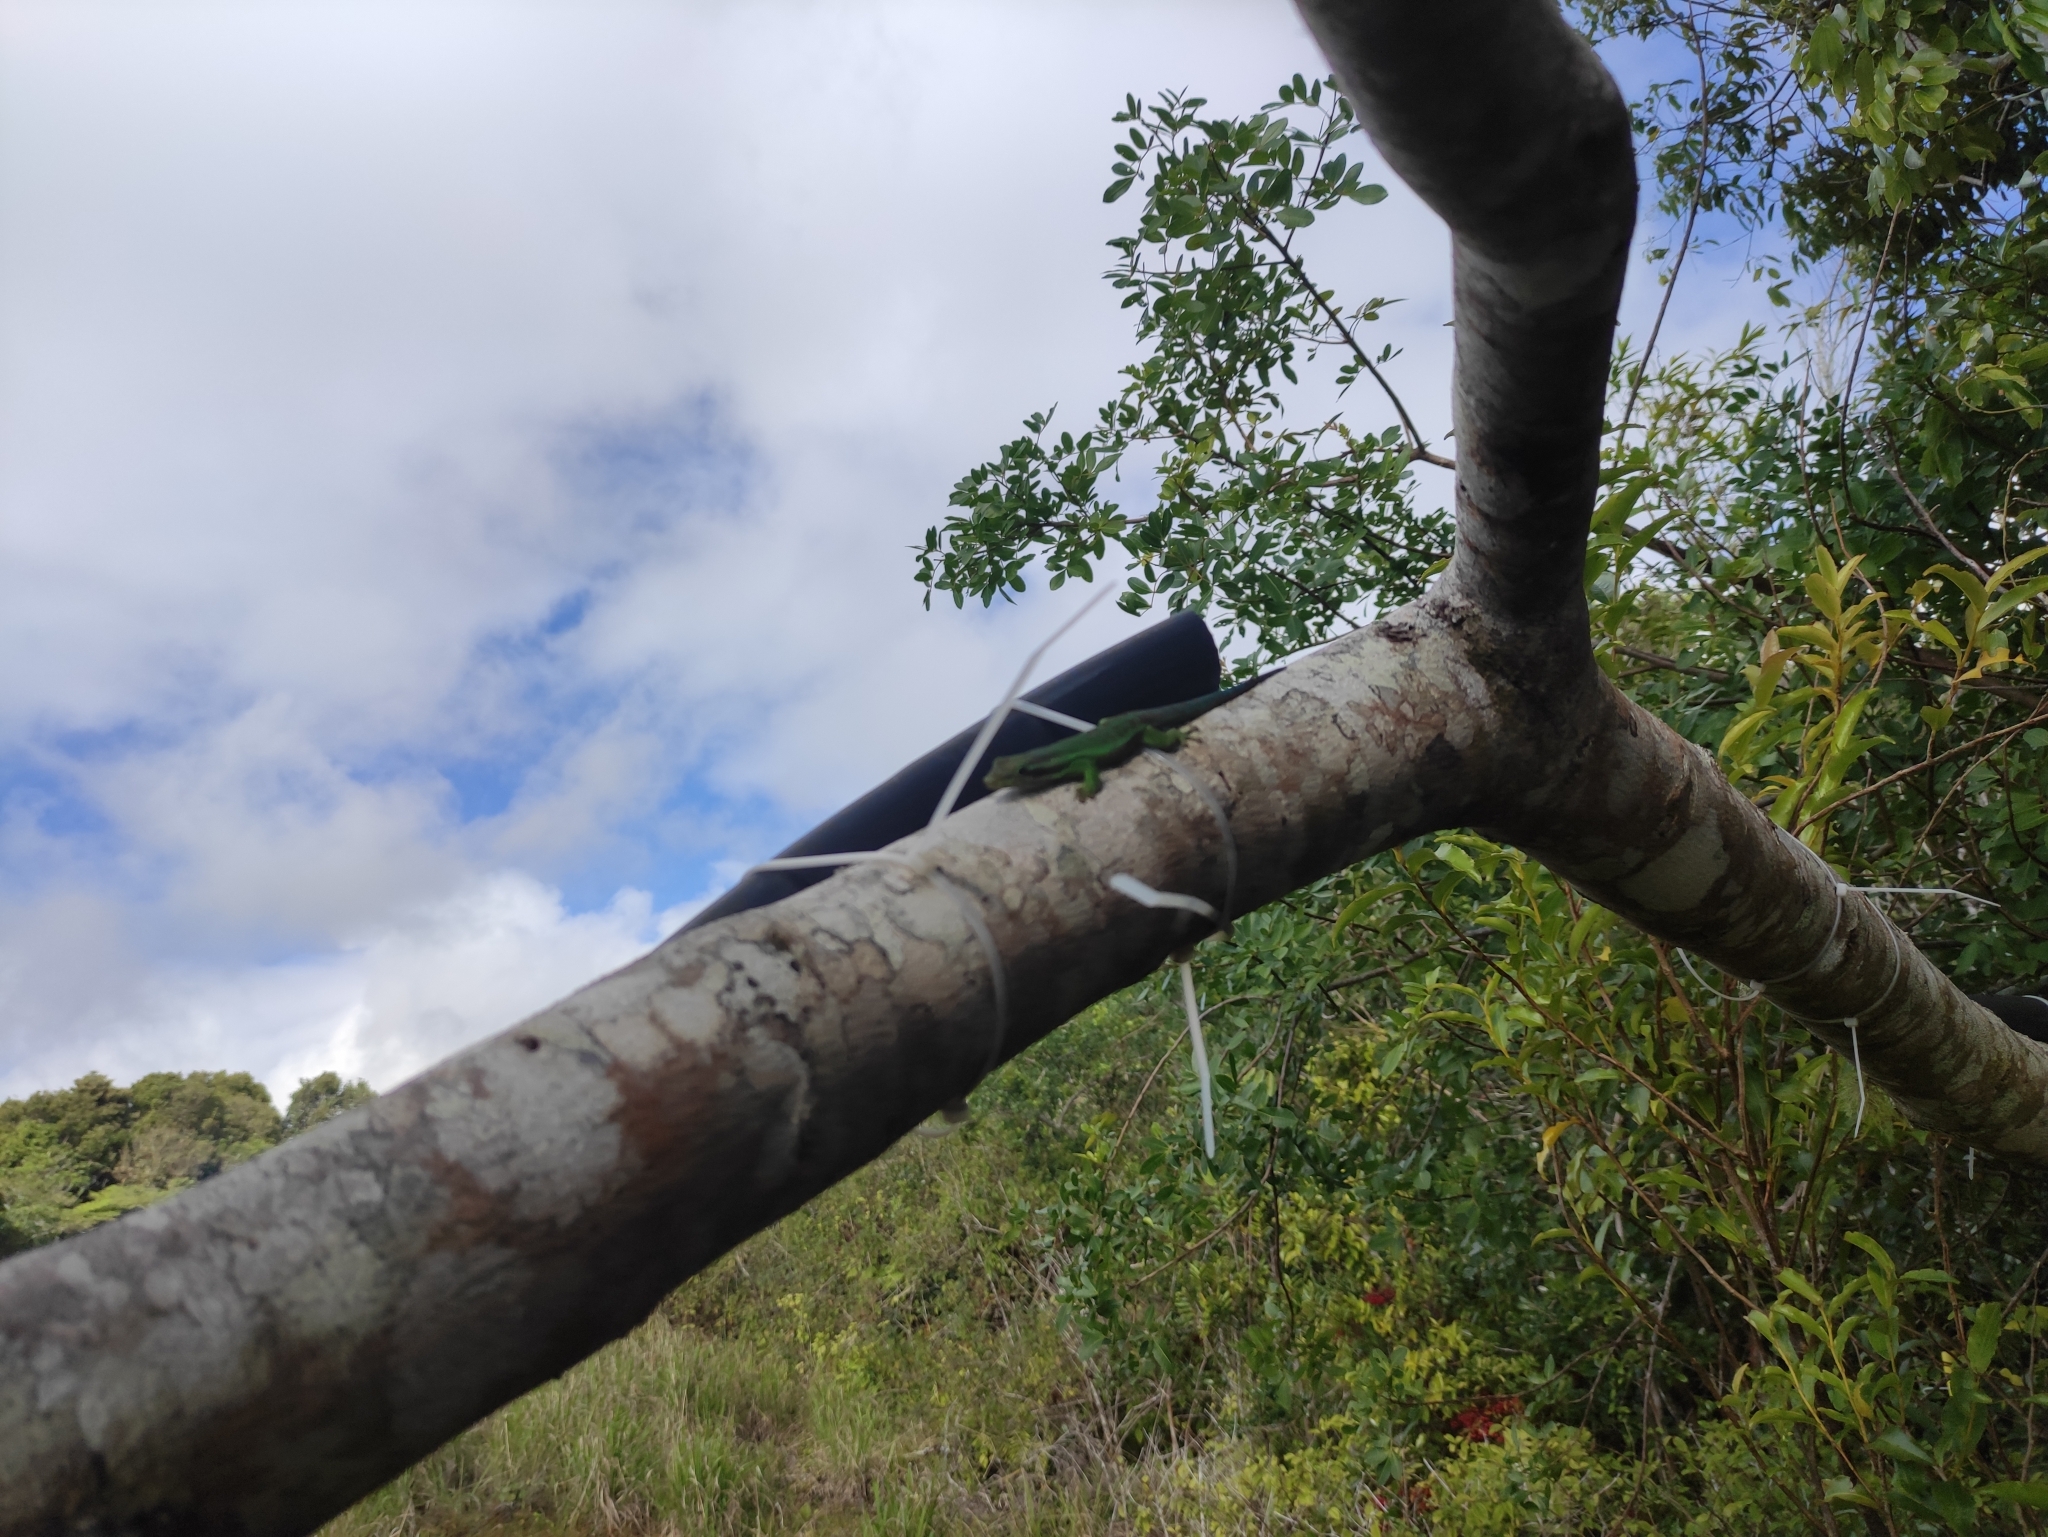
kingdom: Animalia
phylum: Chordata
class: Squamata
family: Gekkonidae
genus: Phelsuma
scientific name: Phelsuma borbonica
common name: Réunion day gecko
